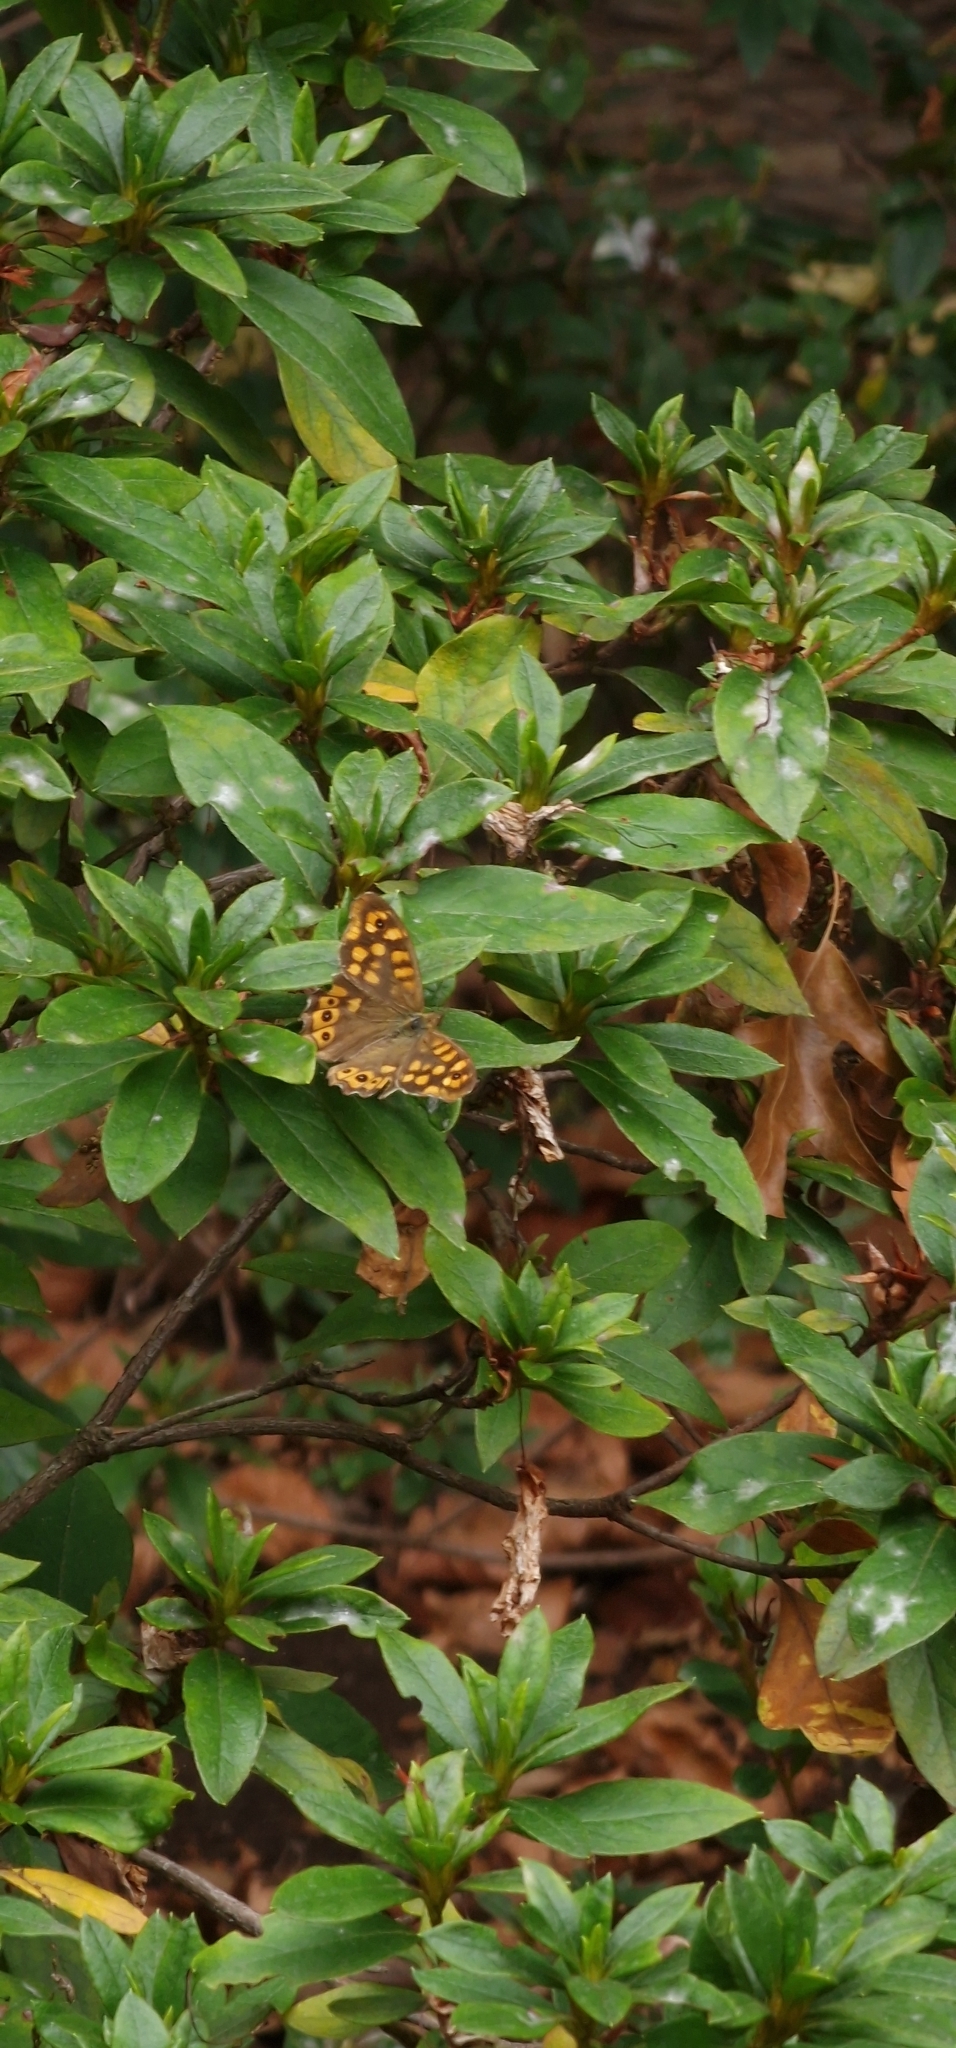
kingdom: Animalia
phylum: Arthropoda
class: Insecta
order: Lepidoptera
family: Nymphalidae
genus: Pararge
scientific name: Pararge aegeria
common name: Speckled wood
